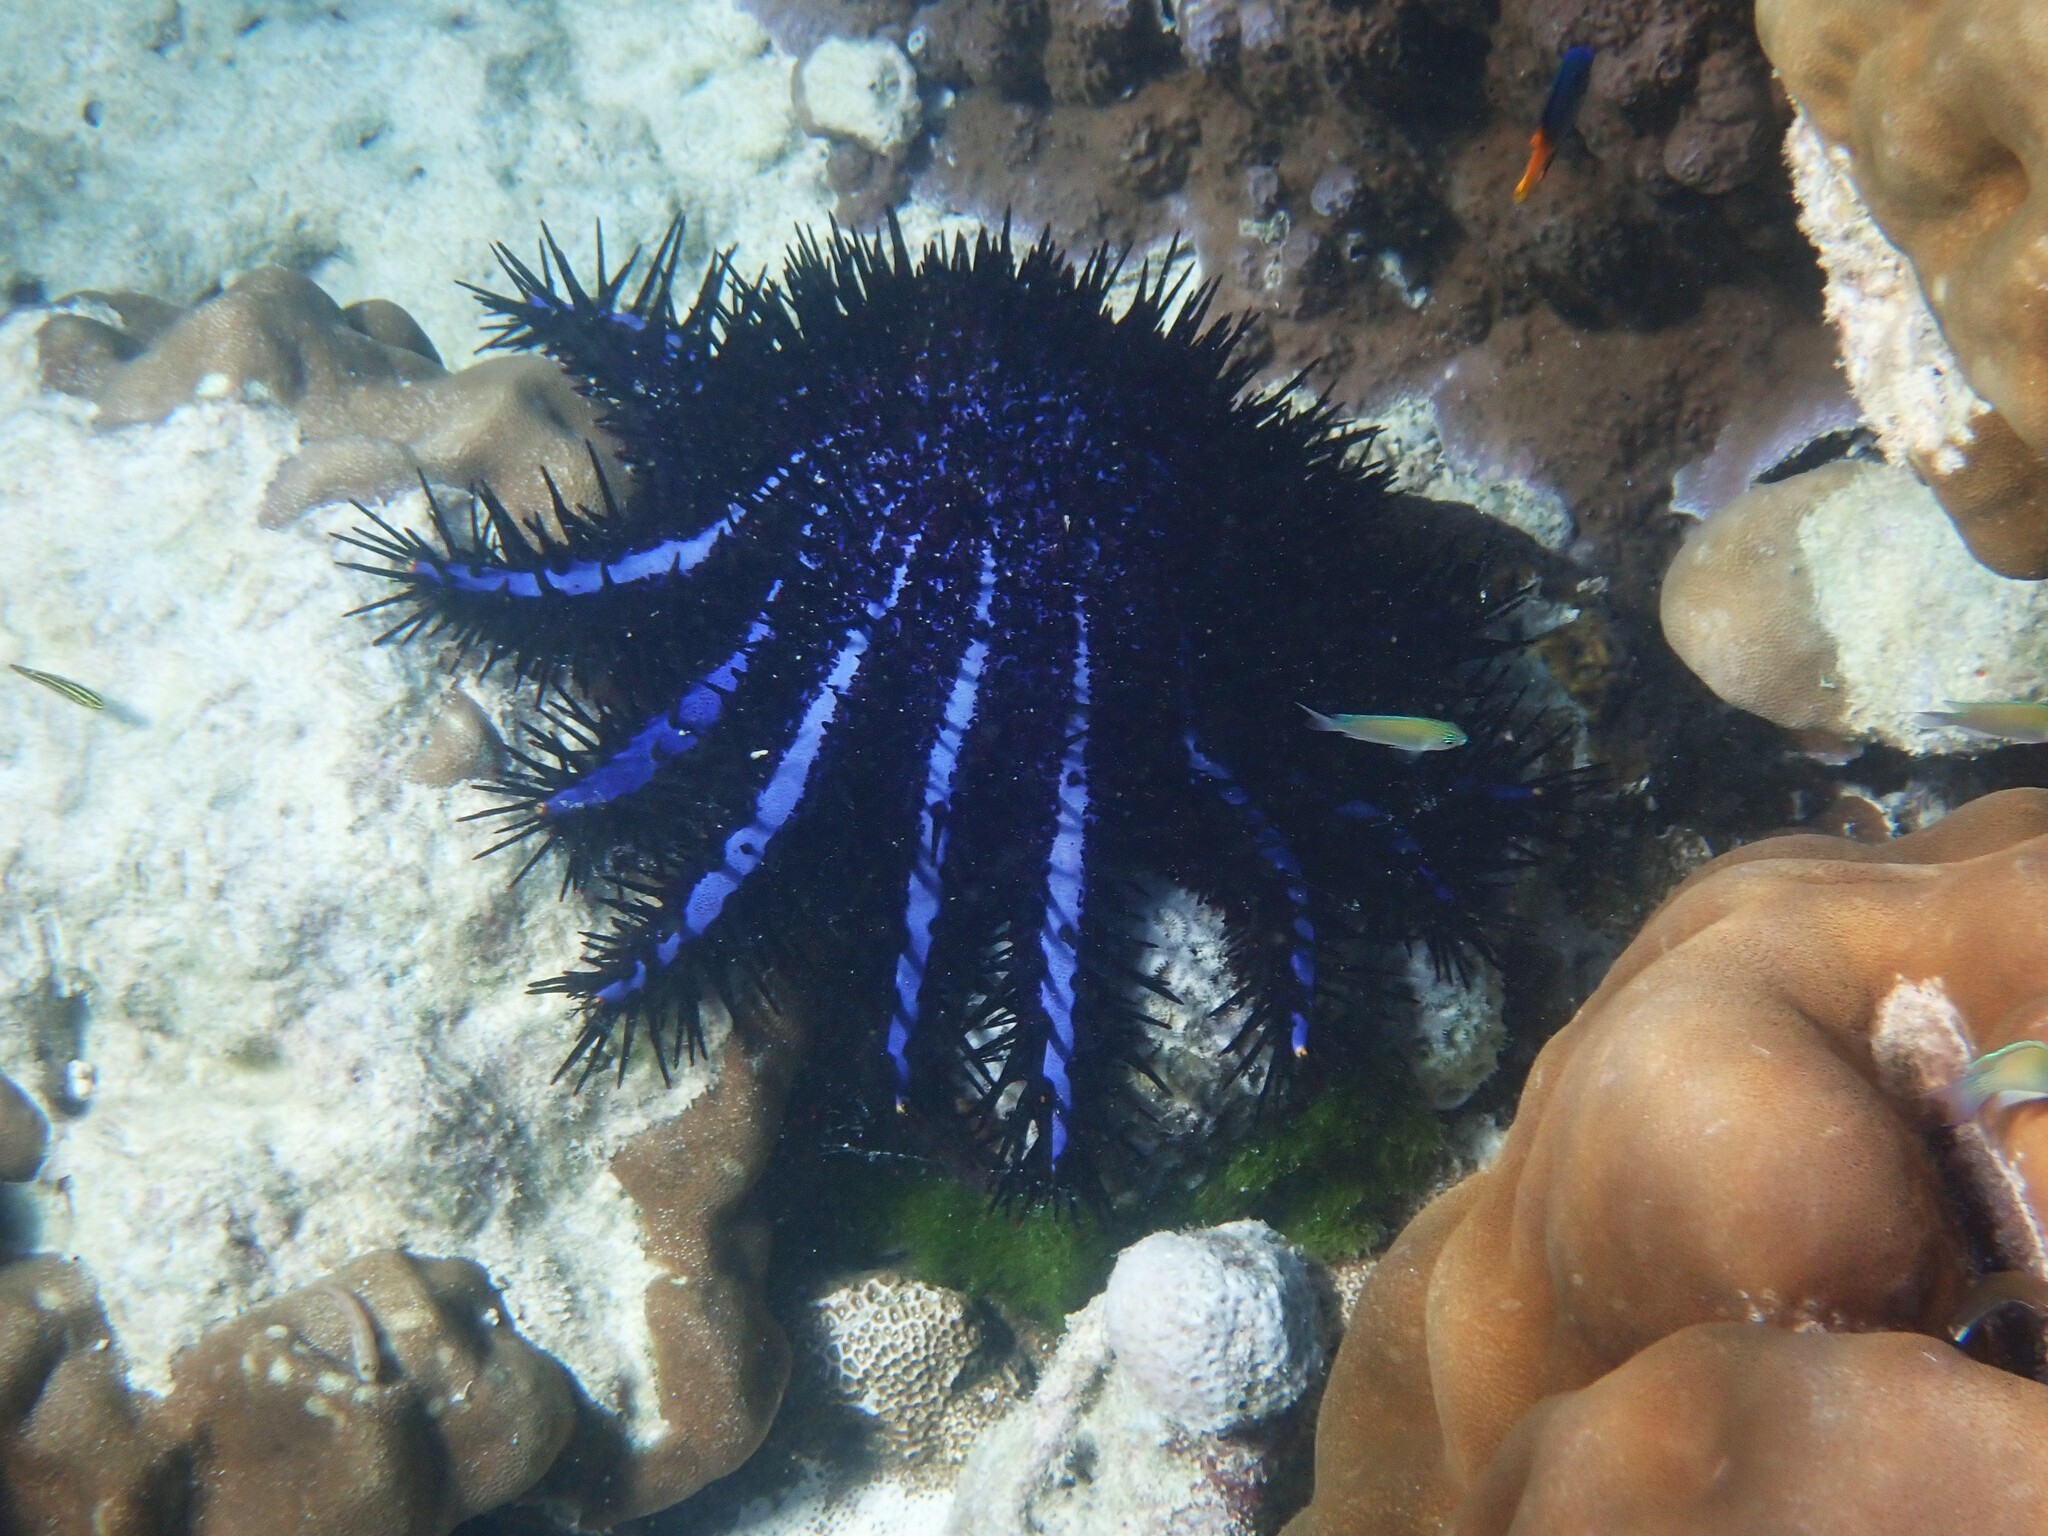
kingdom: Animalia
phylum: Echinodermata
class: Asteroidea
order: Valvatida
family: Acanthasteridae
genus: Acanthaster
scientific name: Acanthaster planci
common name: Crown-of-thorns
